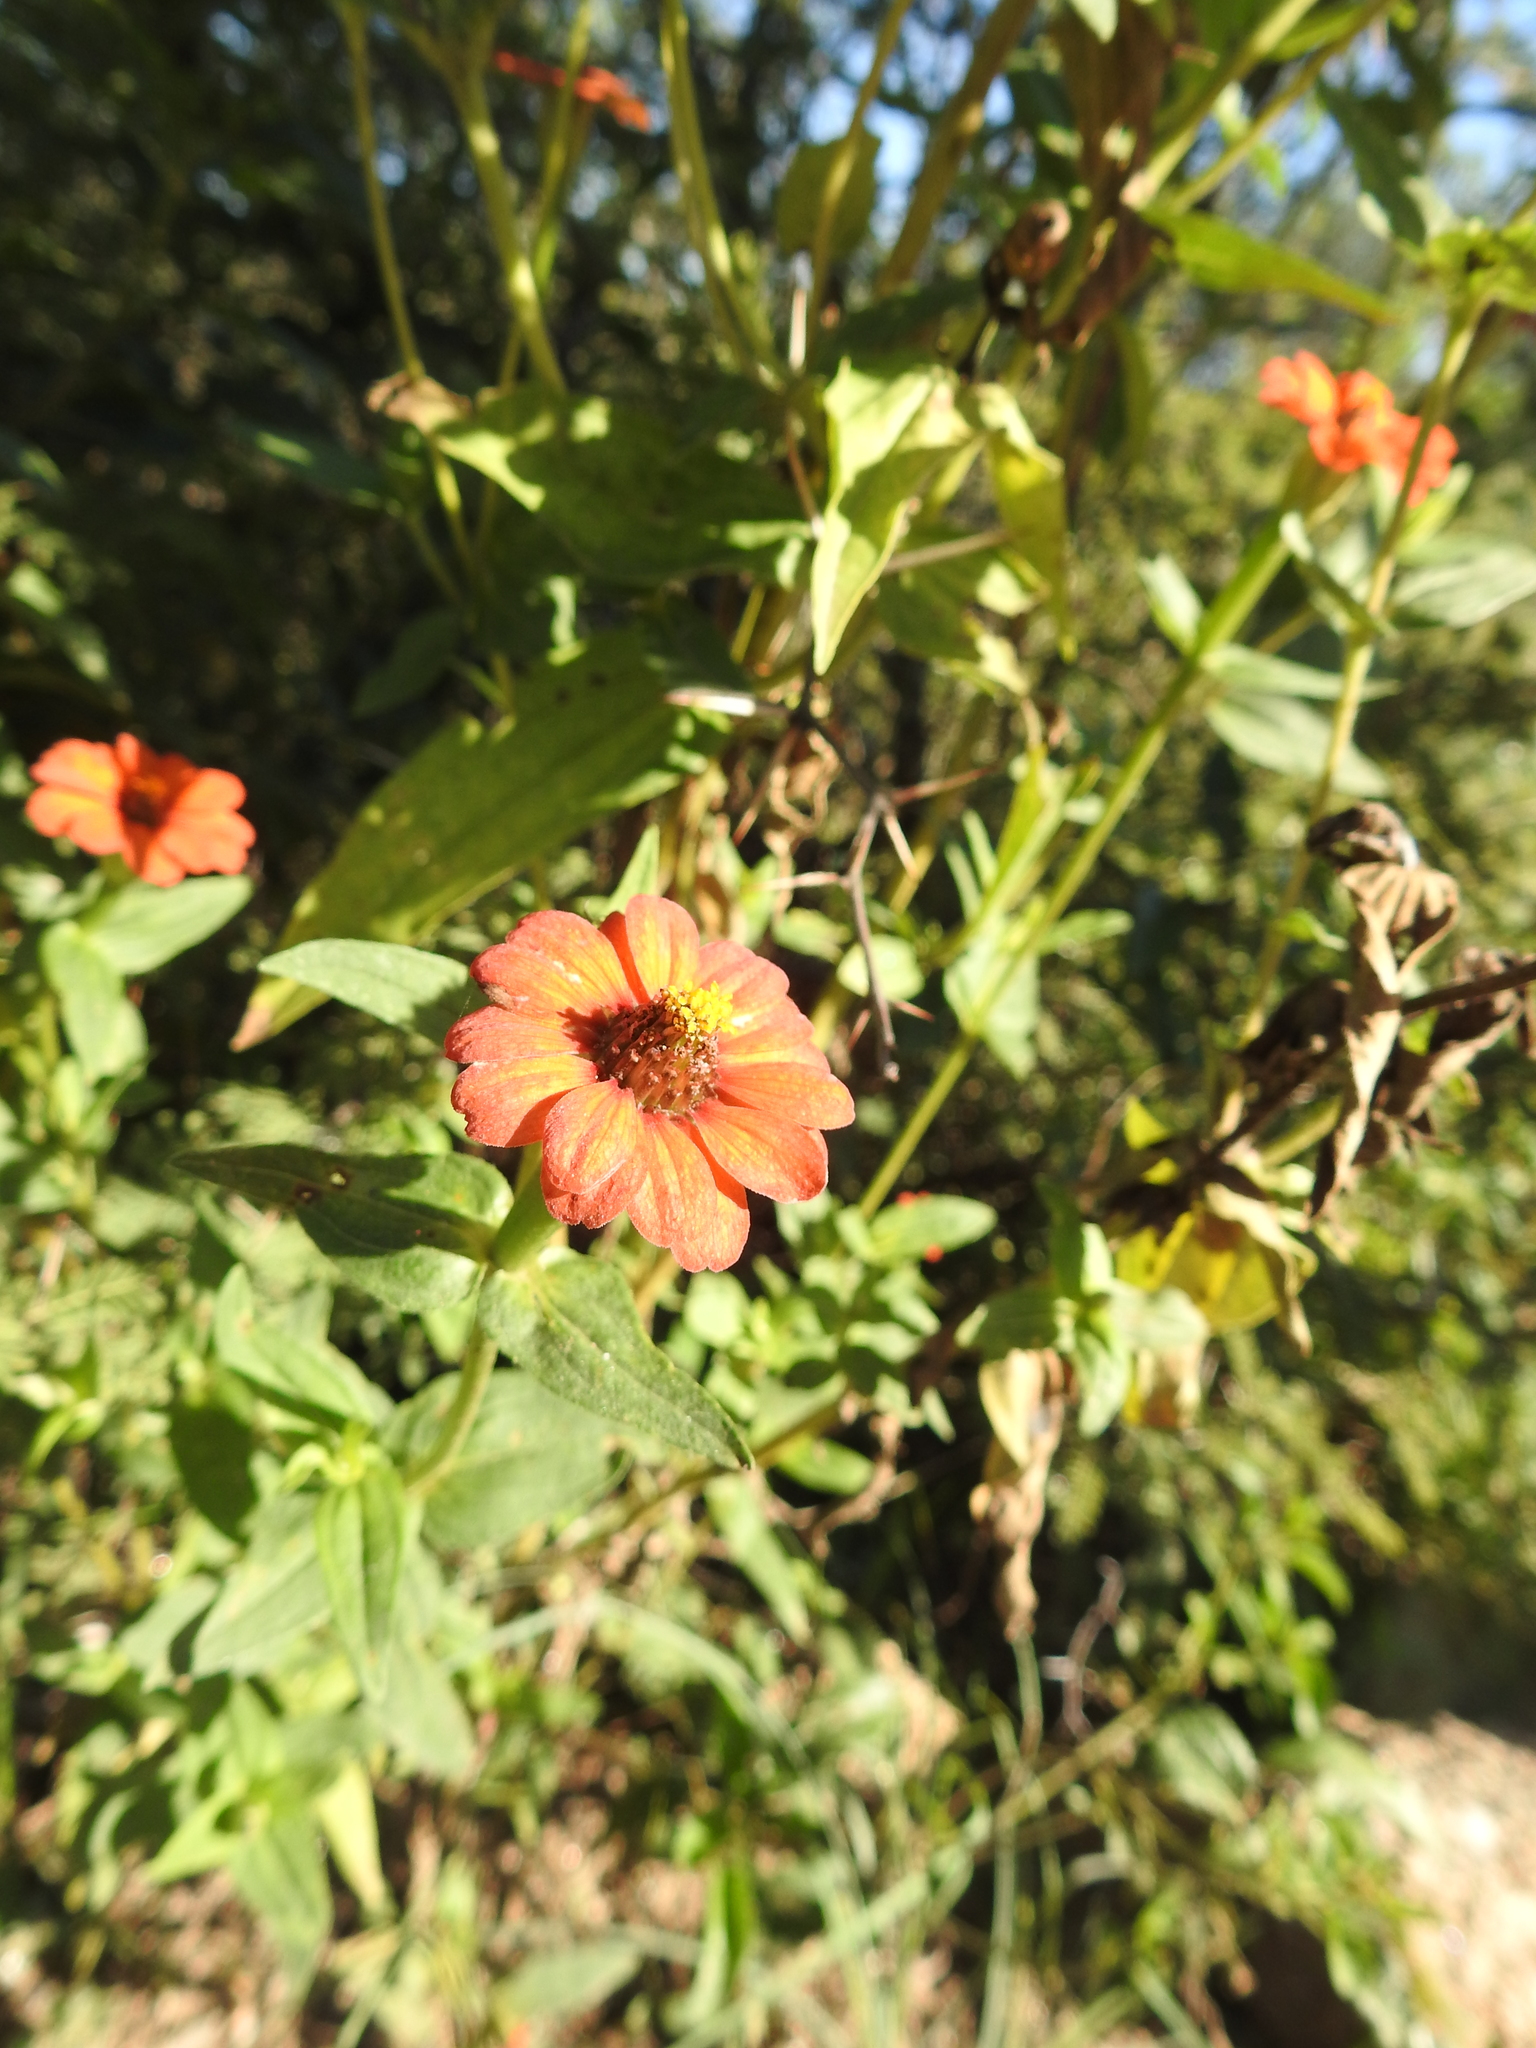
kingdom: Plantae
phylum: Tracheophyta
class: Magnoliopsida
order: Asterales
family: Asteraceae
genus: Zinnia
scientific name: Zinnia peruviana
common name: Peruvian zinnia
